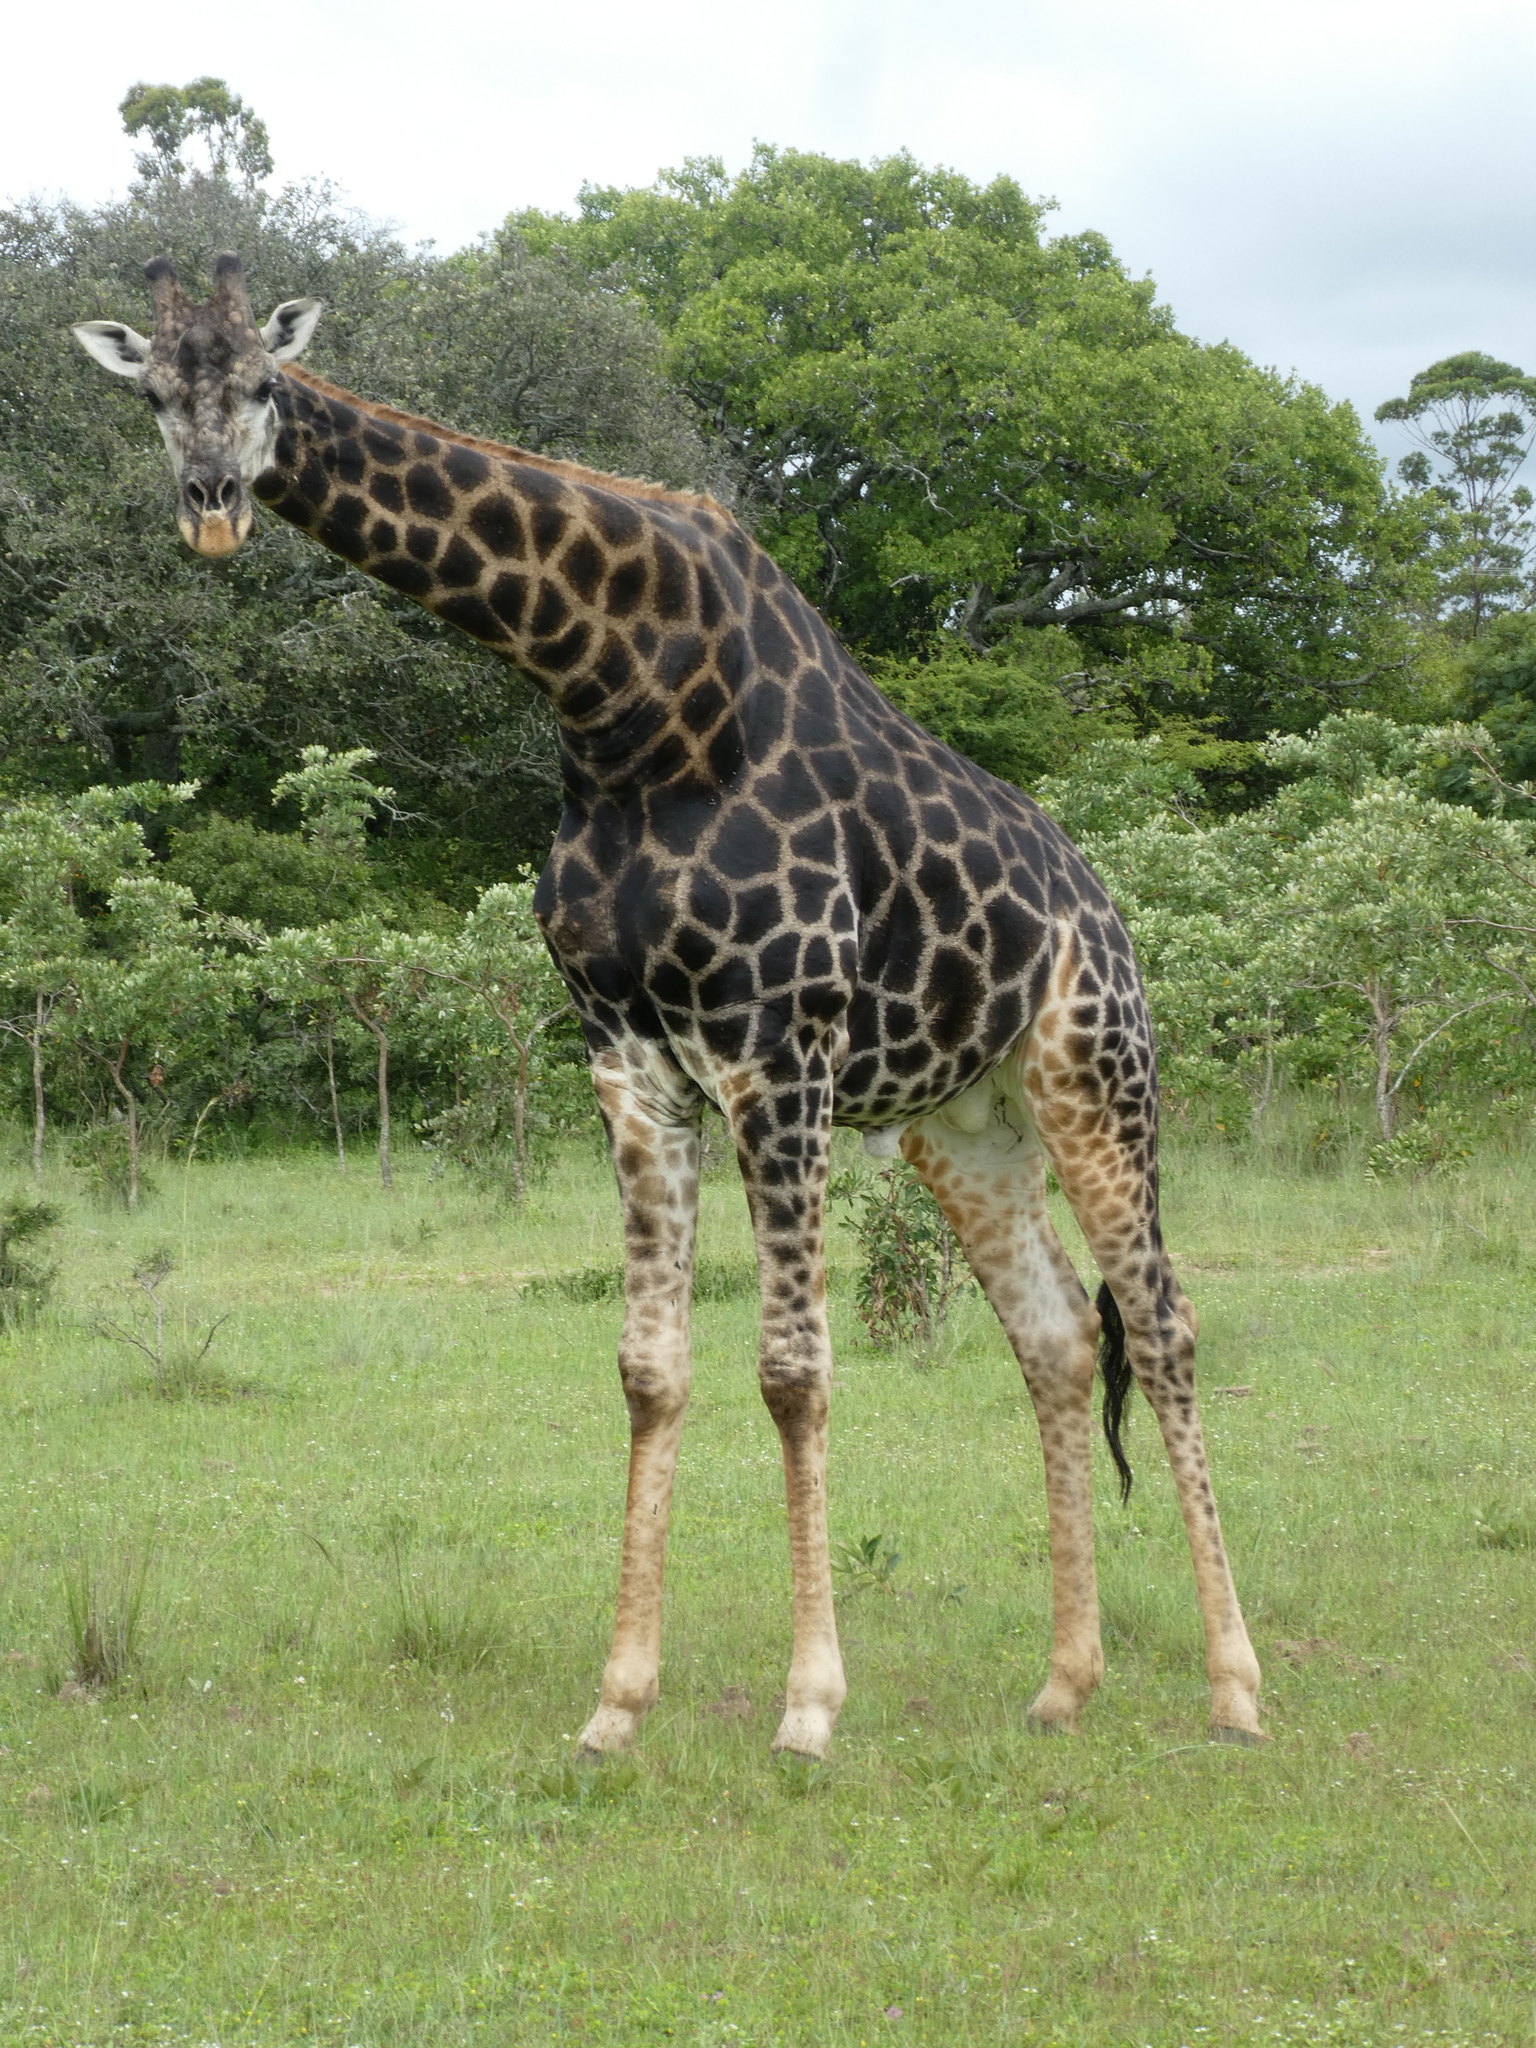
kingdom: Animalia
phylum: Chordata
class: Mammalia
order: Artiodactyla
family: Giraffidae
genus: Giraffa
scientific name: Giraffa giraffa
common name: Southern giraffe
